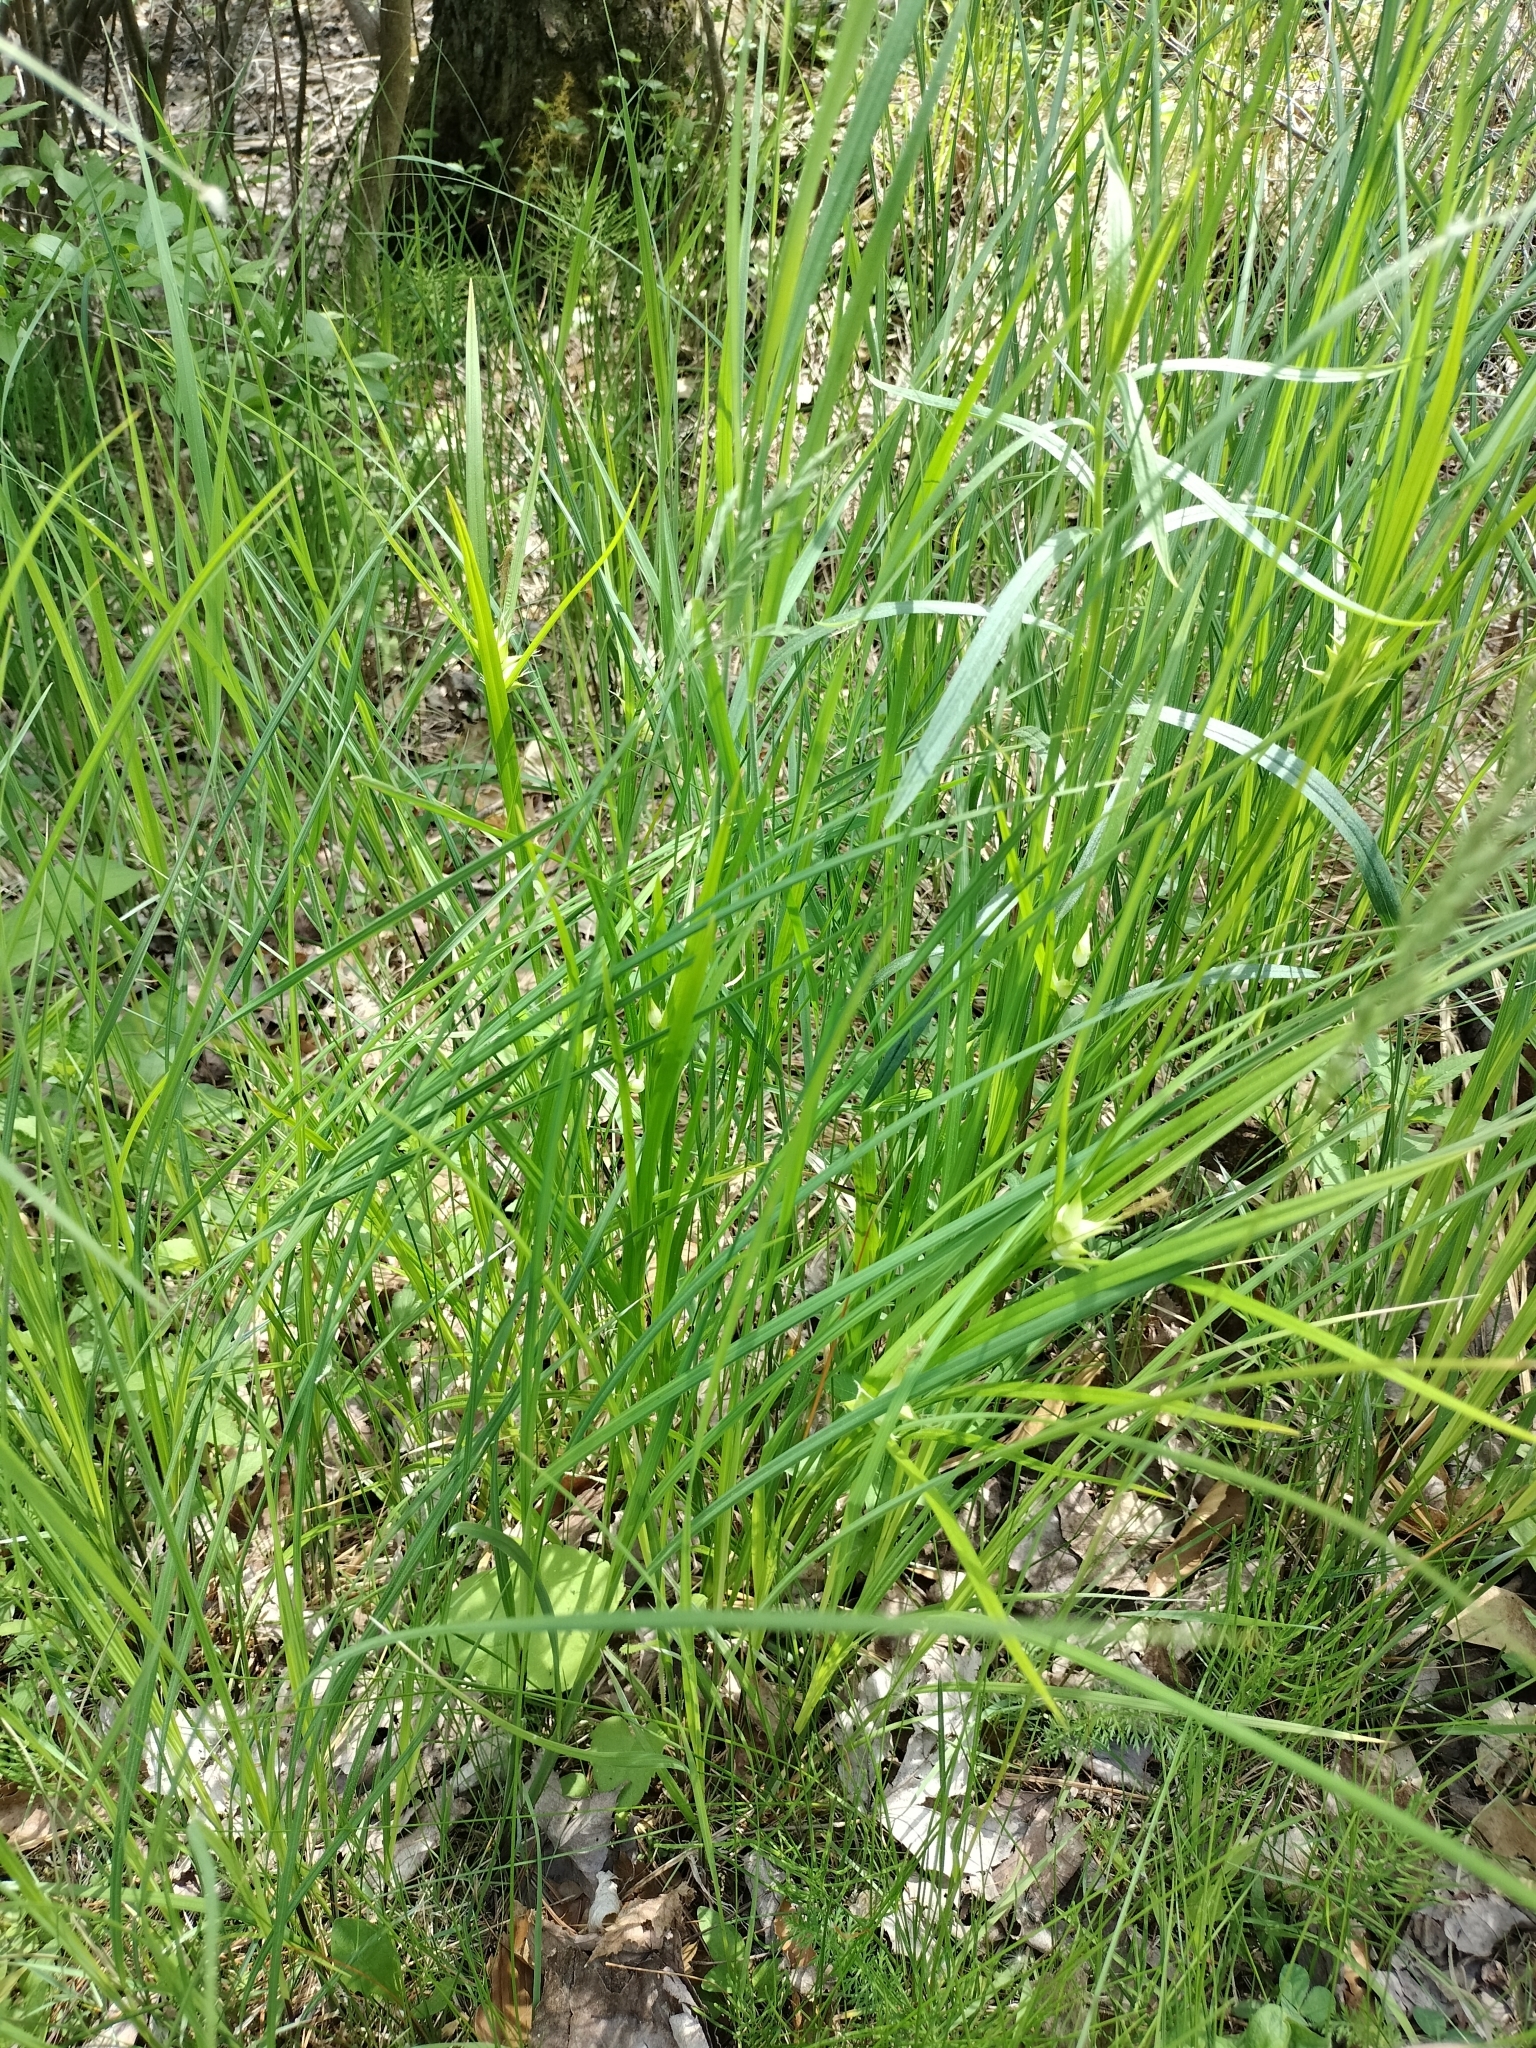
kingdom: Plantae
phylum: Tracheophyta
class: Liliopsida
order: Poales
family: Cyperaceae
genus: Carex
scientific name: Carex intumescens
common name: Greater bladder sedge
